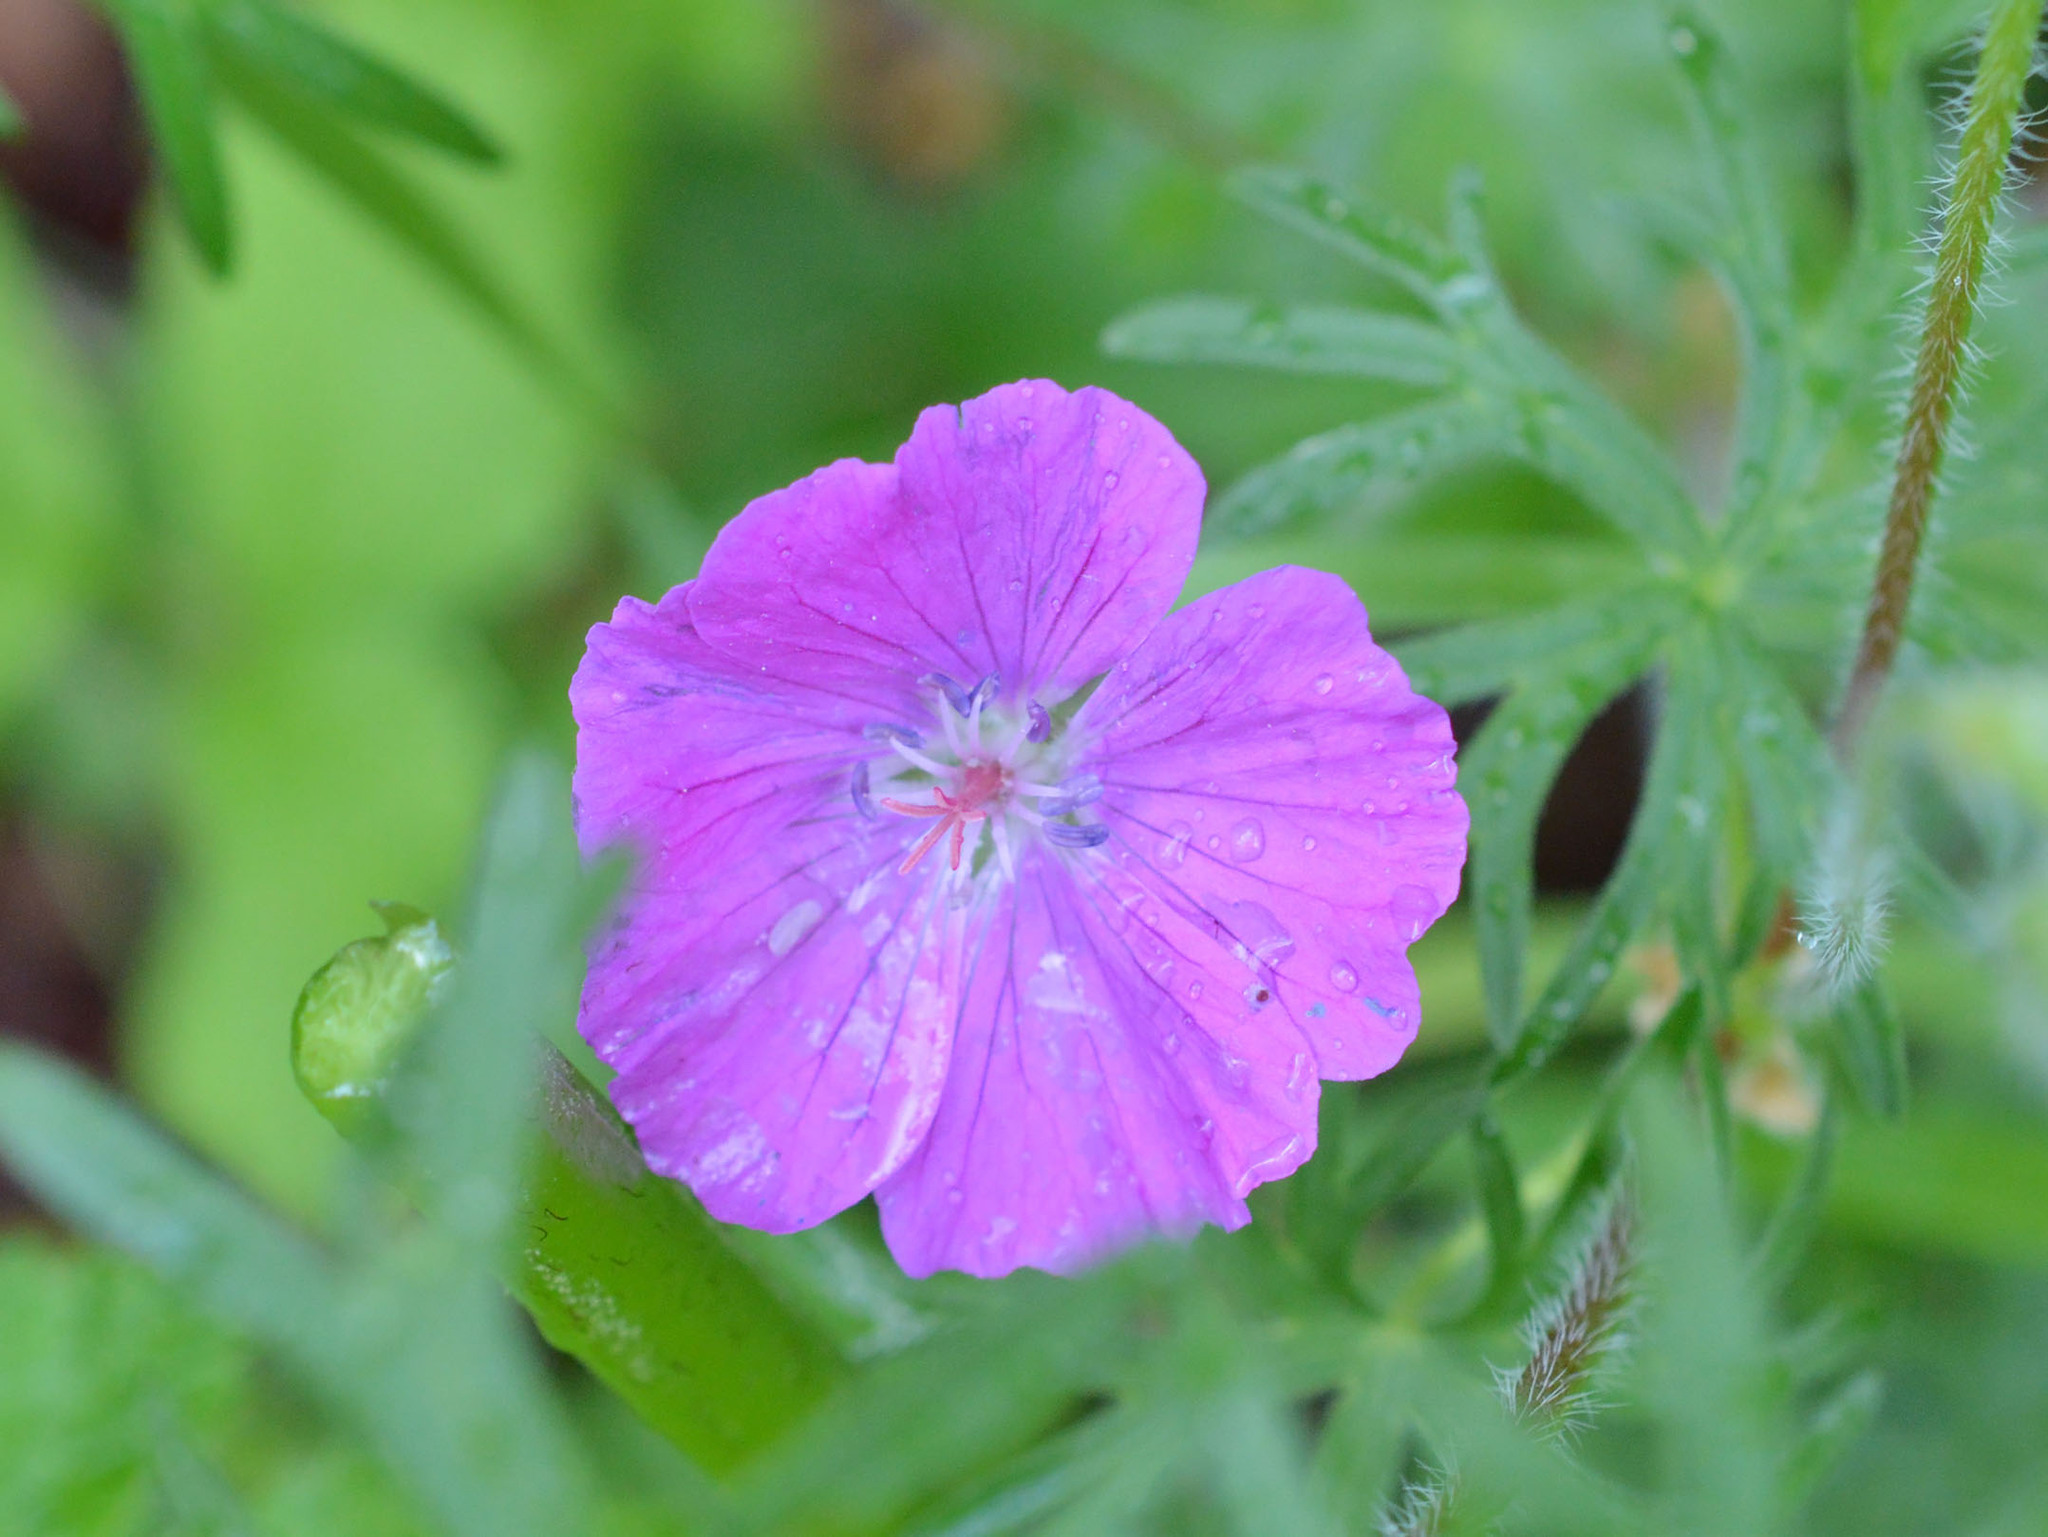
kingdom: Plantae
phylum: Tracheophyta
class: Magnoliopsida
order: Geraniales
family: Geraniaceae
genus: Geranium
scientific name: Geranium sanguineum
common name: Bloody crane's-bill
